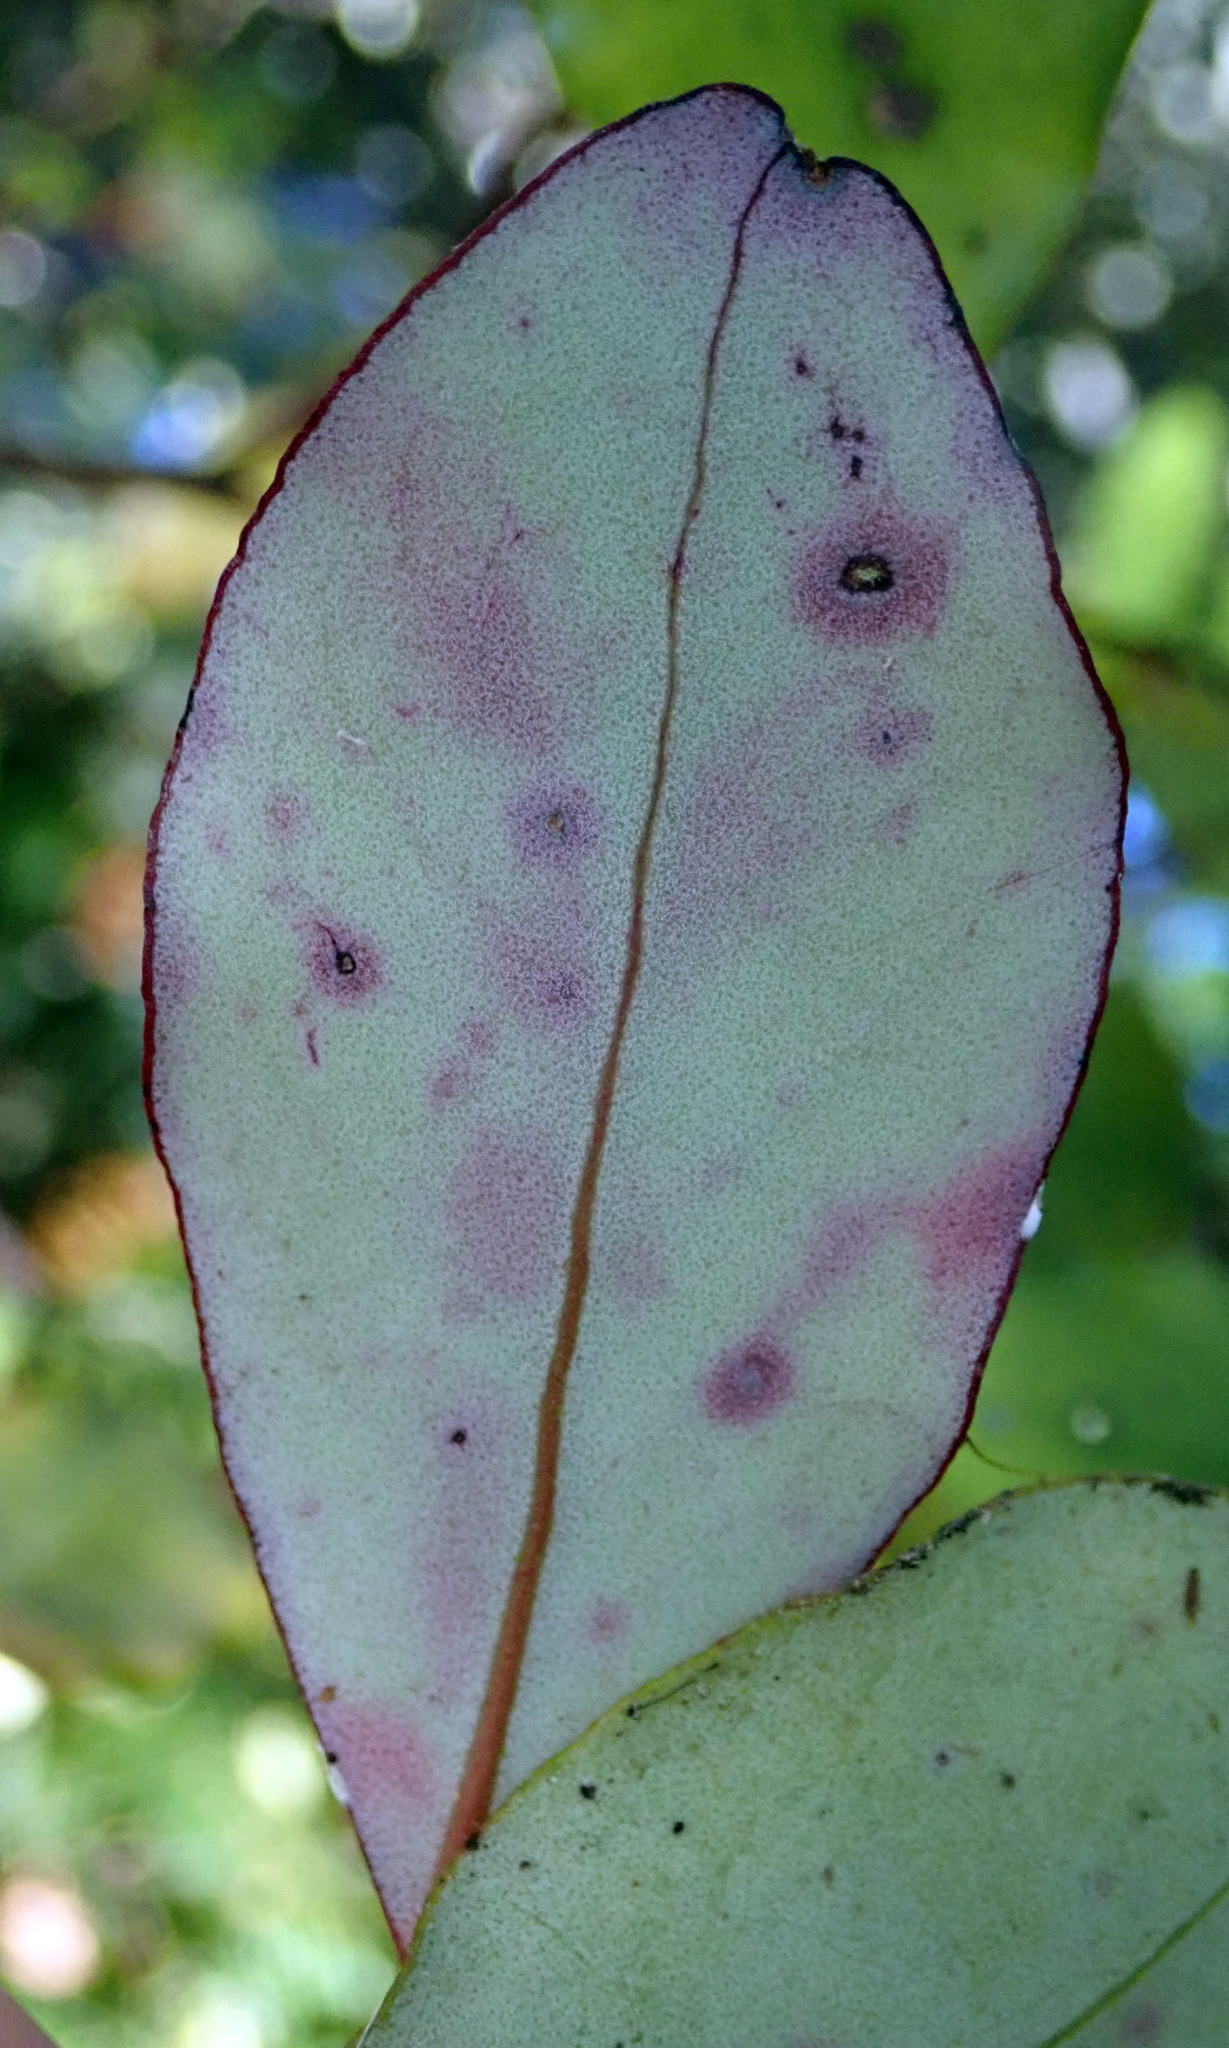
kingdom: Plantae
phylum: Tracheophyta
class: Magnoliopsida
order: Canellales
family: Winteraceae
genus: Pseudowintera
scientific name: Pseudowintera colorata
